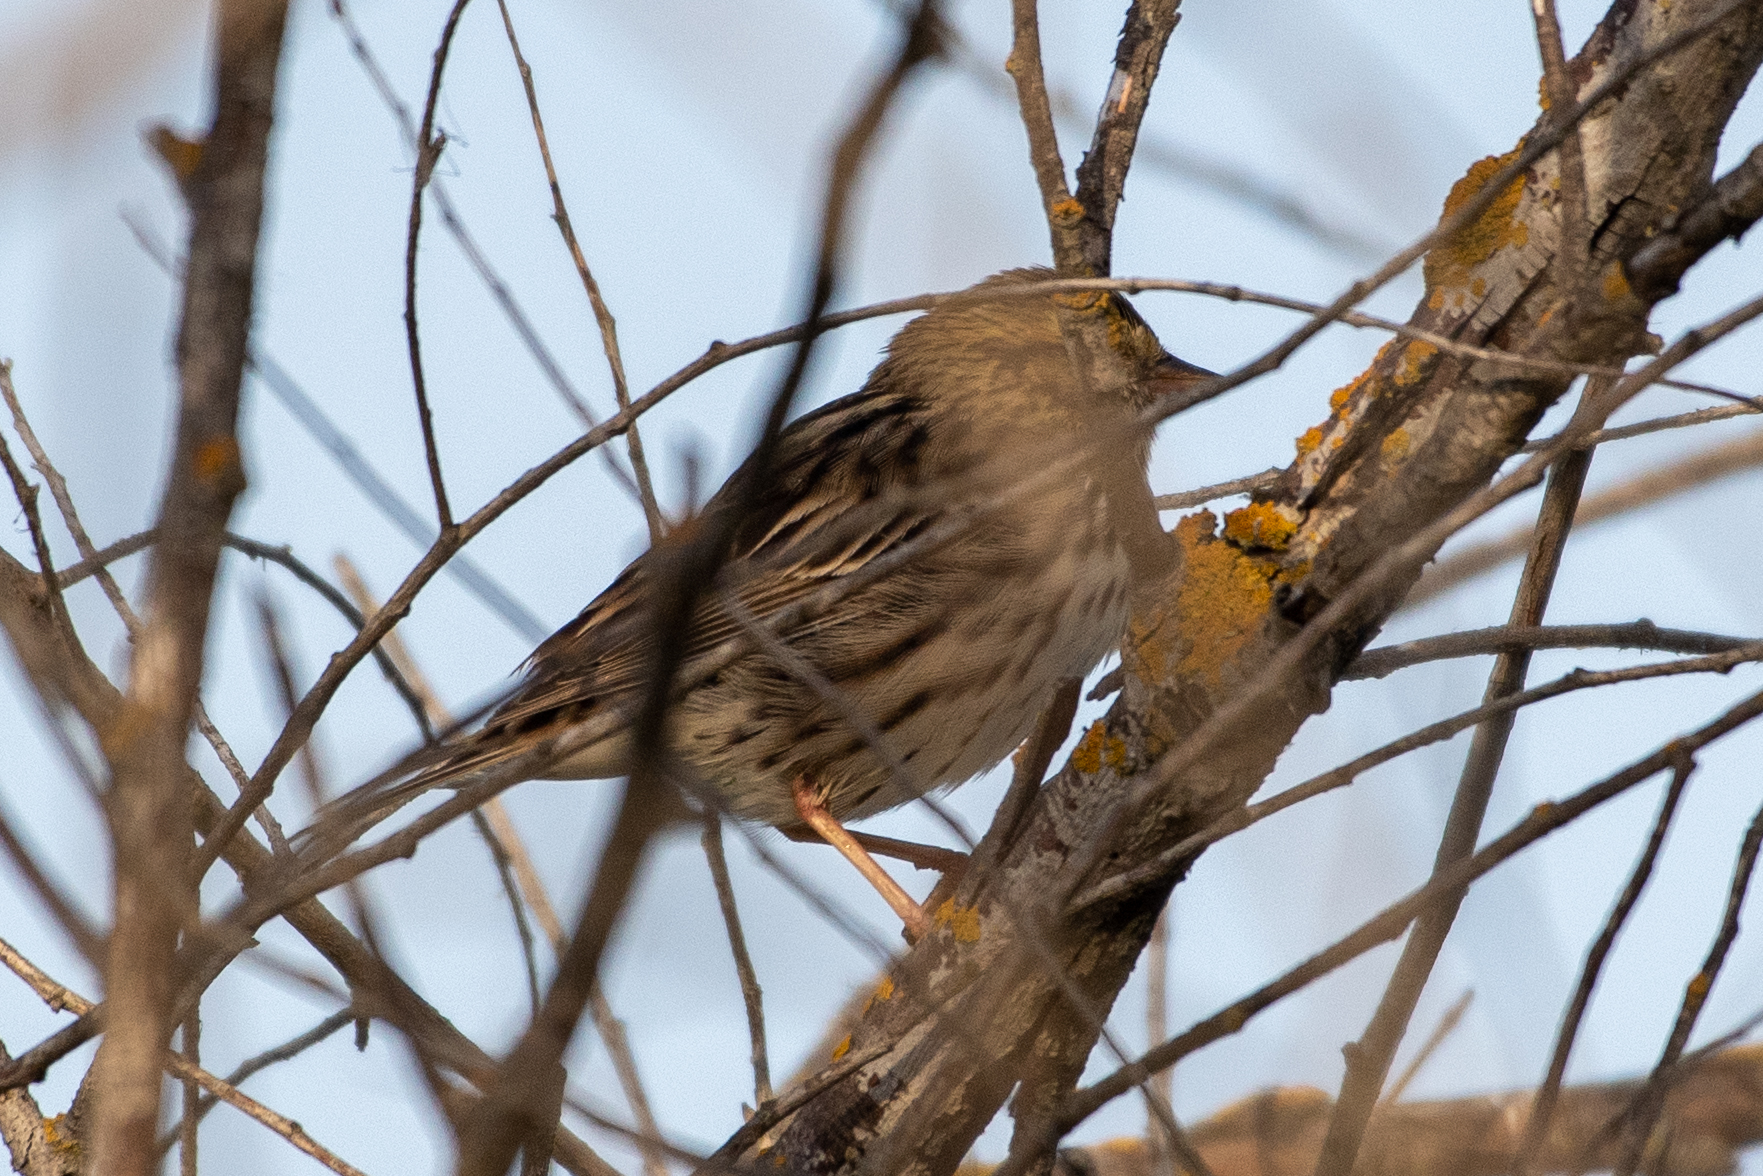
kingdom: Animalia
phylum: Chordata
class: Aves
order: Passeriformes
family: Passerellidae
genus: Passerculus
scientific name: Passerculus sandwichensis
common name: Savannah sparrow
